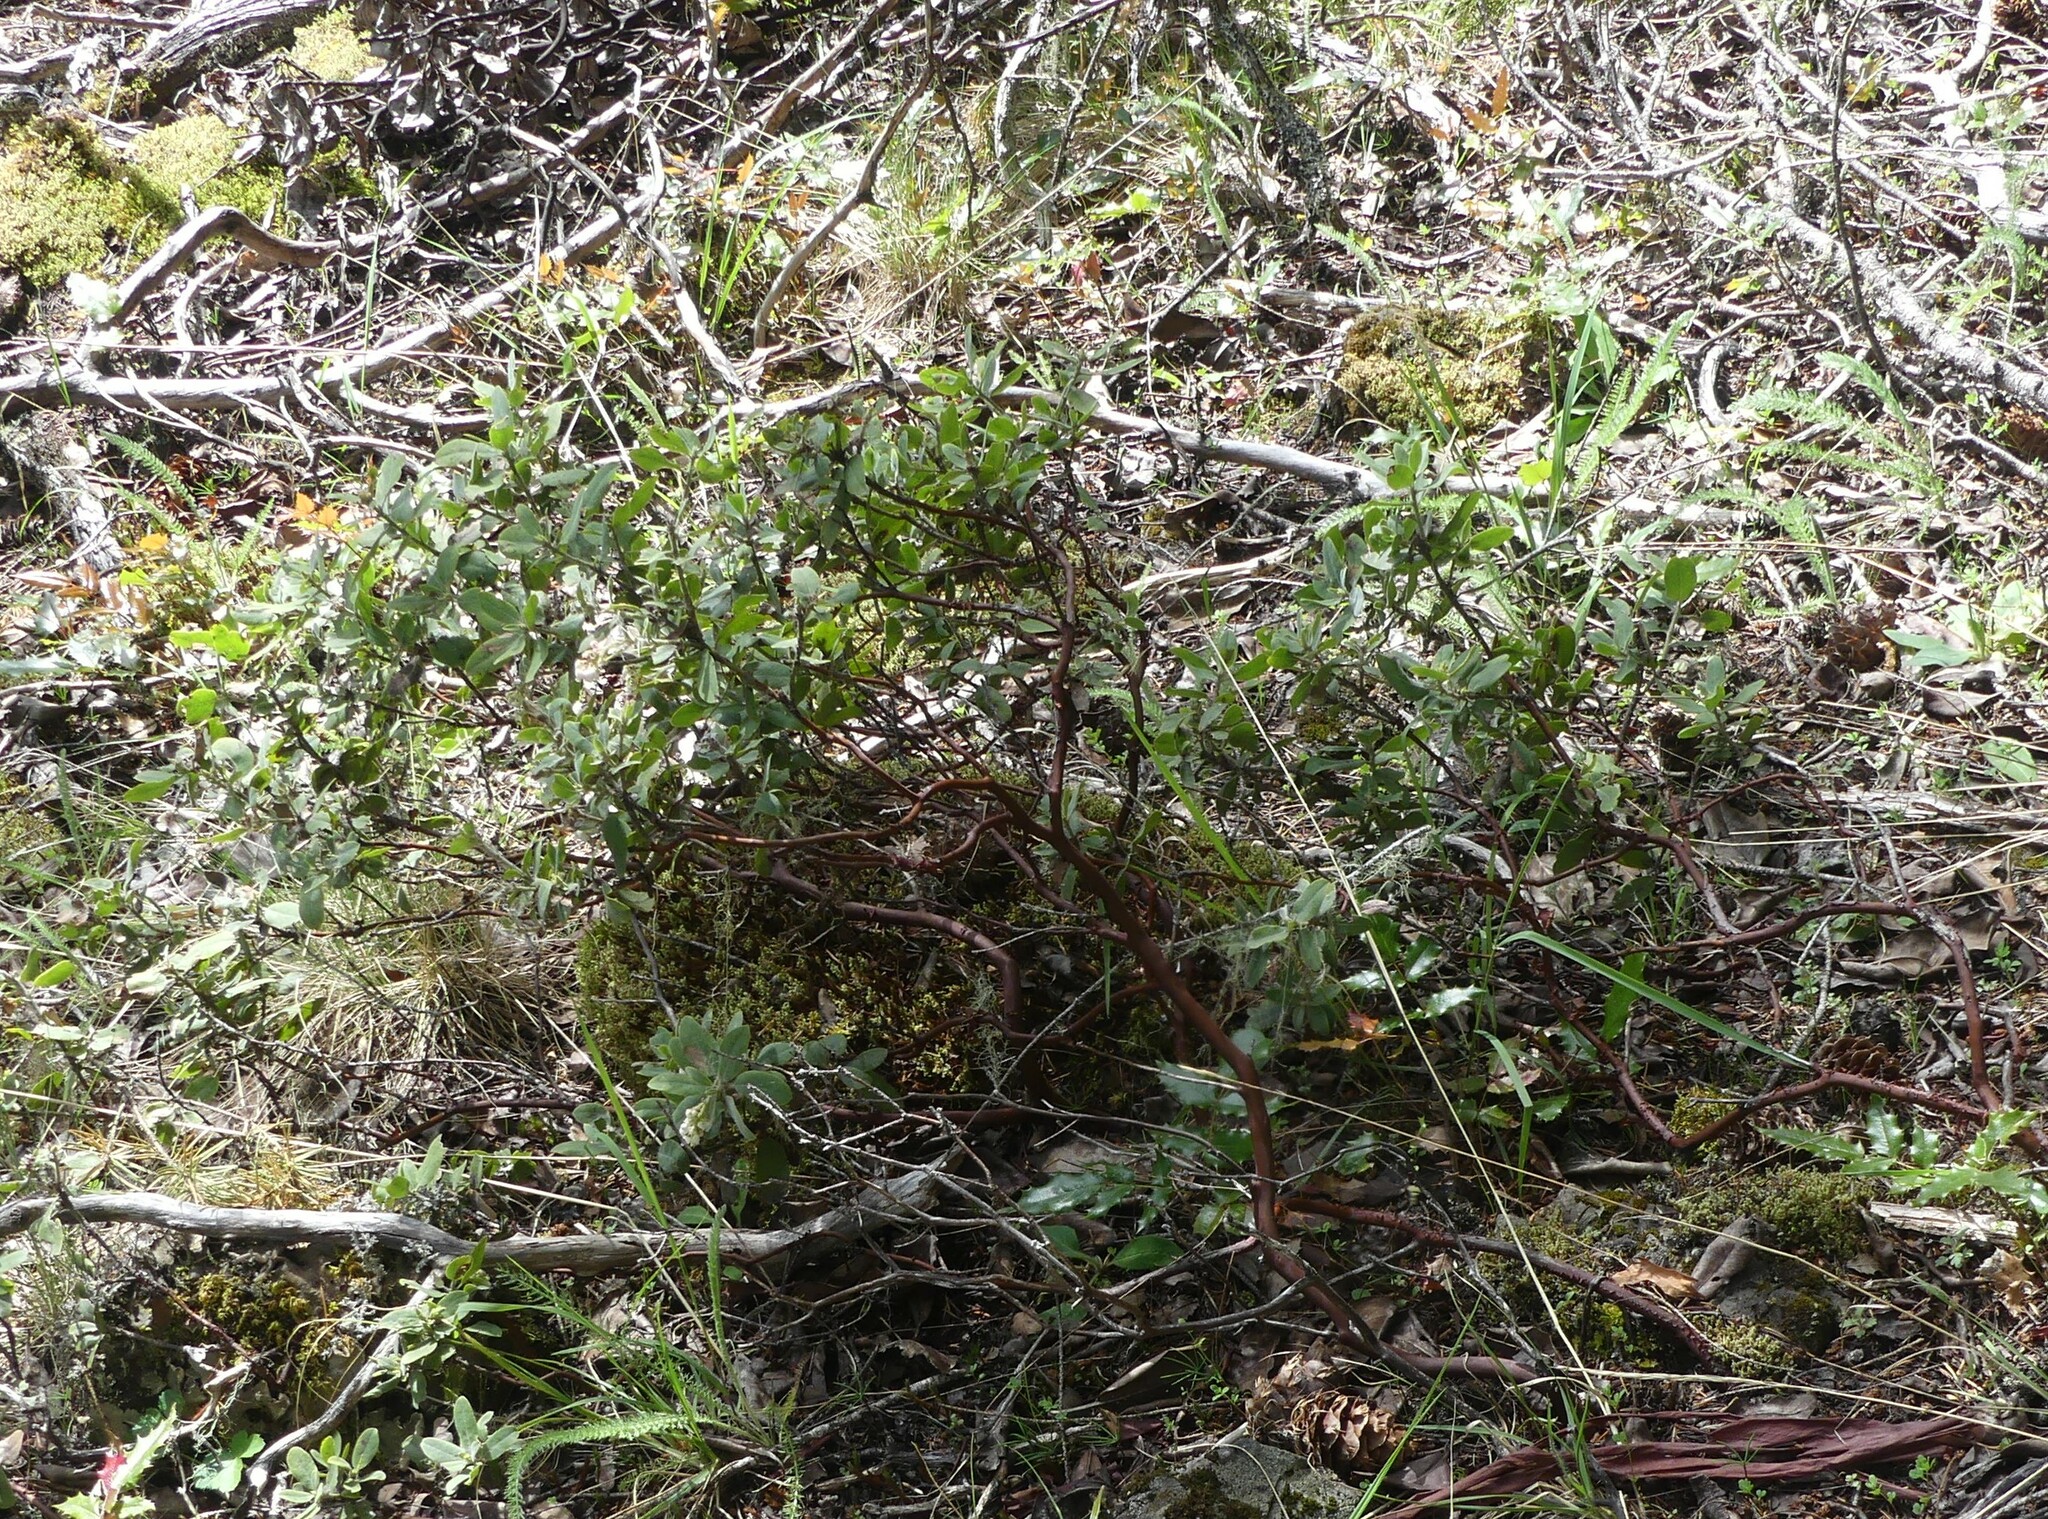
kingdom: Plantae
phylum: Tracheophyta
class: Magnoliopsida
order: Ericales
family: Ericaceae
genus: Arctostaphylos
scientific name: Arctostaphylos columbiana
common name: Bristly bearberry
